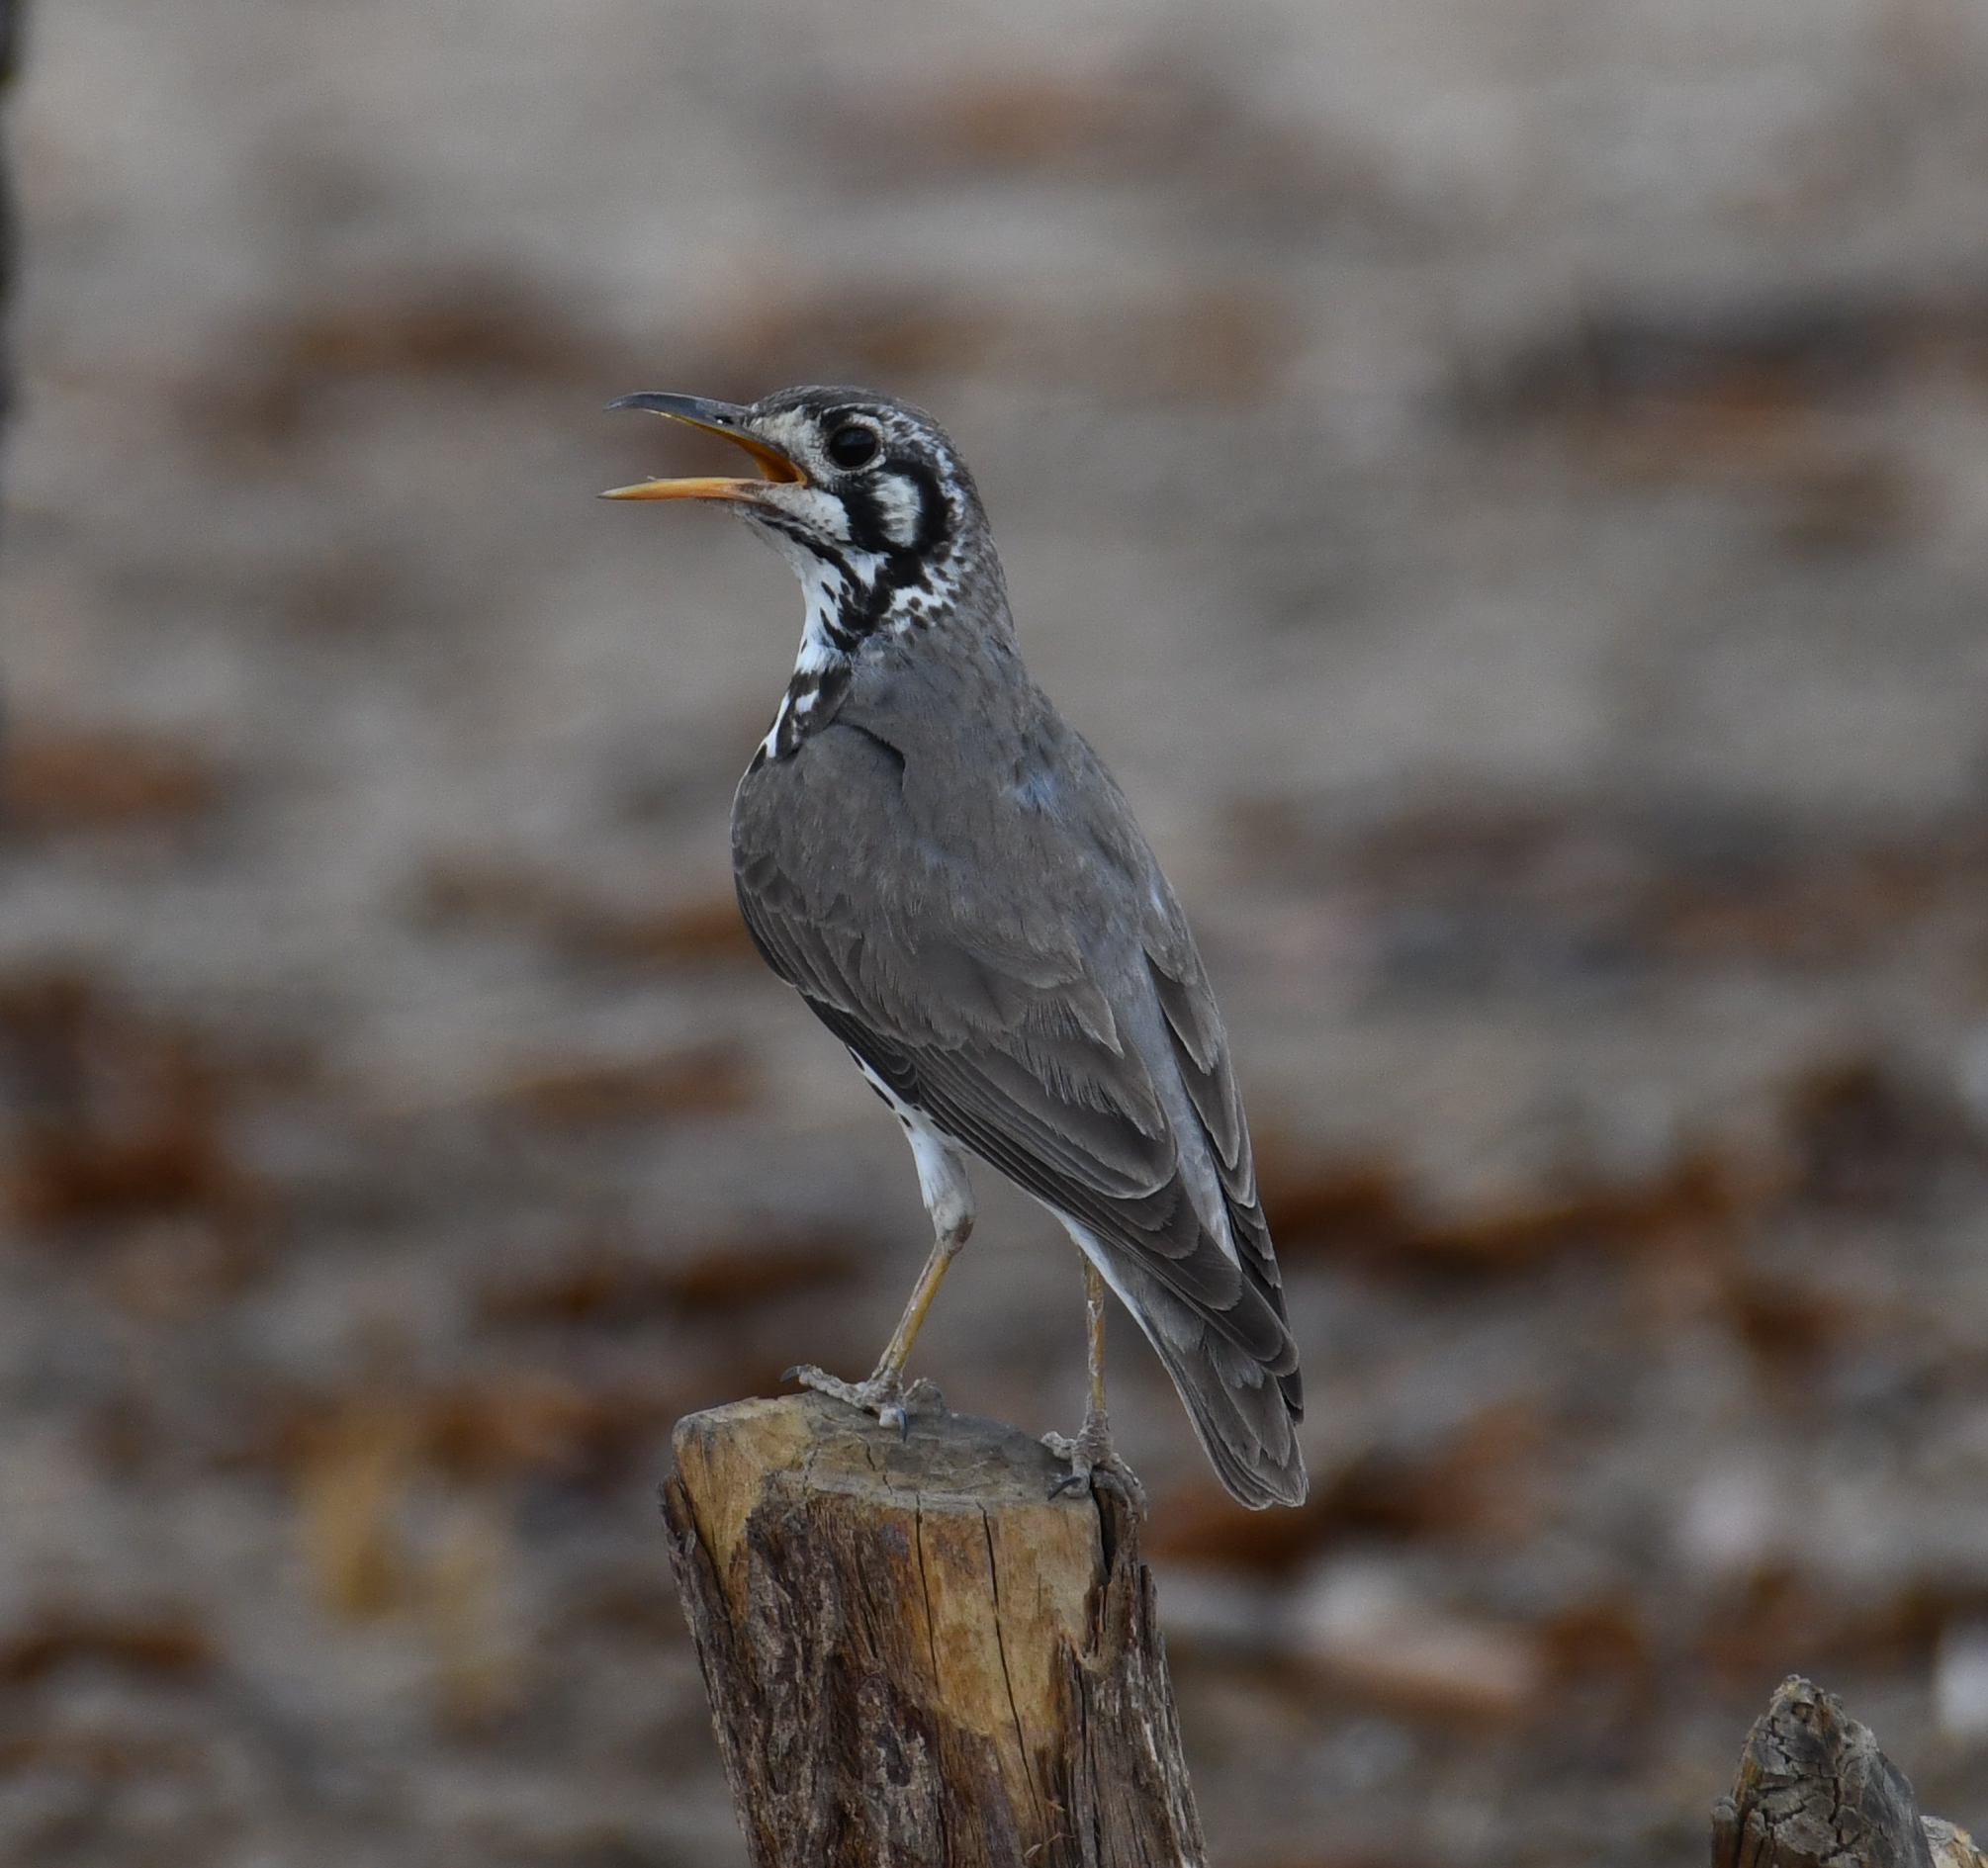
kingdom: Animalia
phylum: Chordata
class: Aves
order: Passeriformes
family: Turdidae
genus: Psophocichla
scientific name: Psophocichla litsitsirupa
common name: Groundscraper thrush
